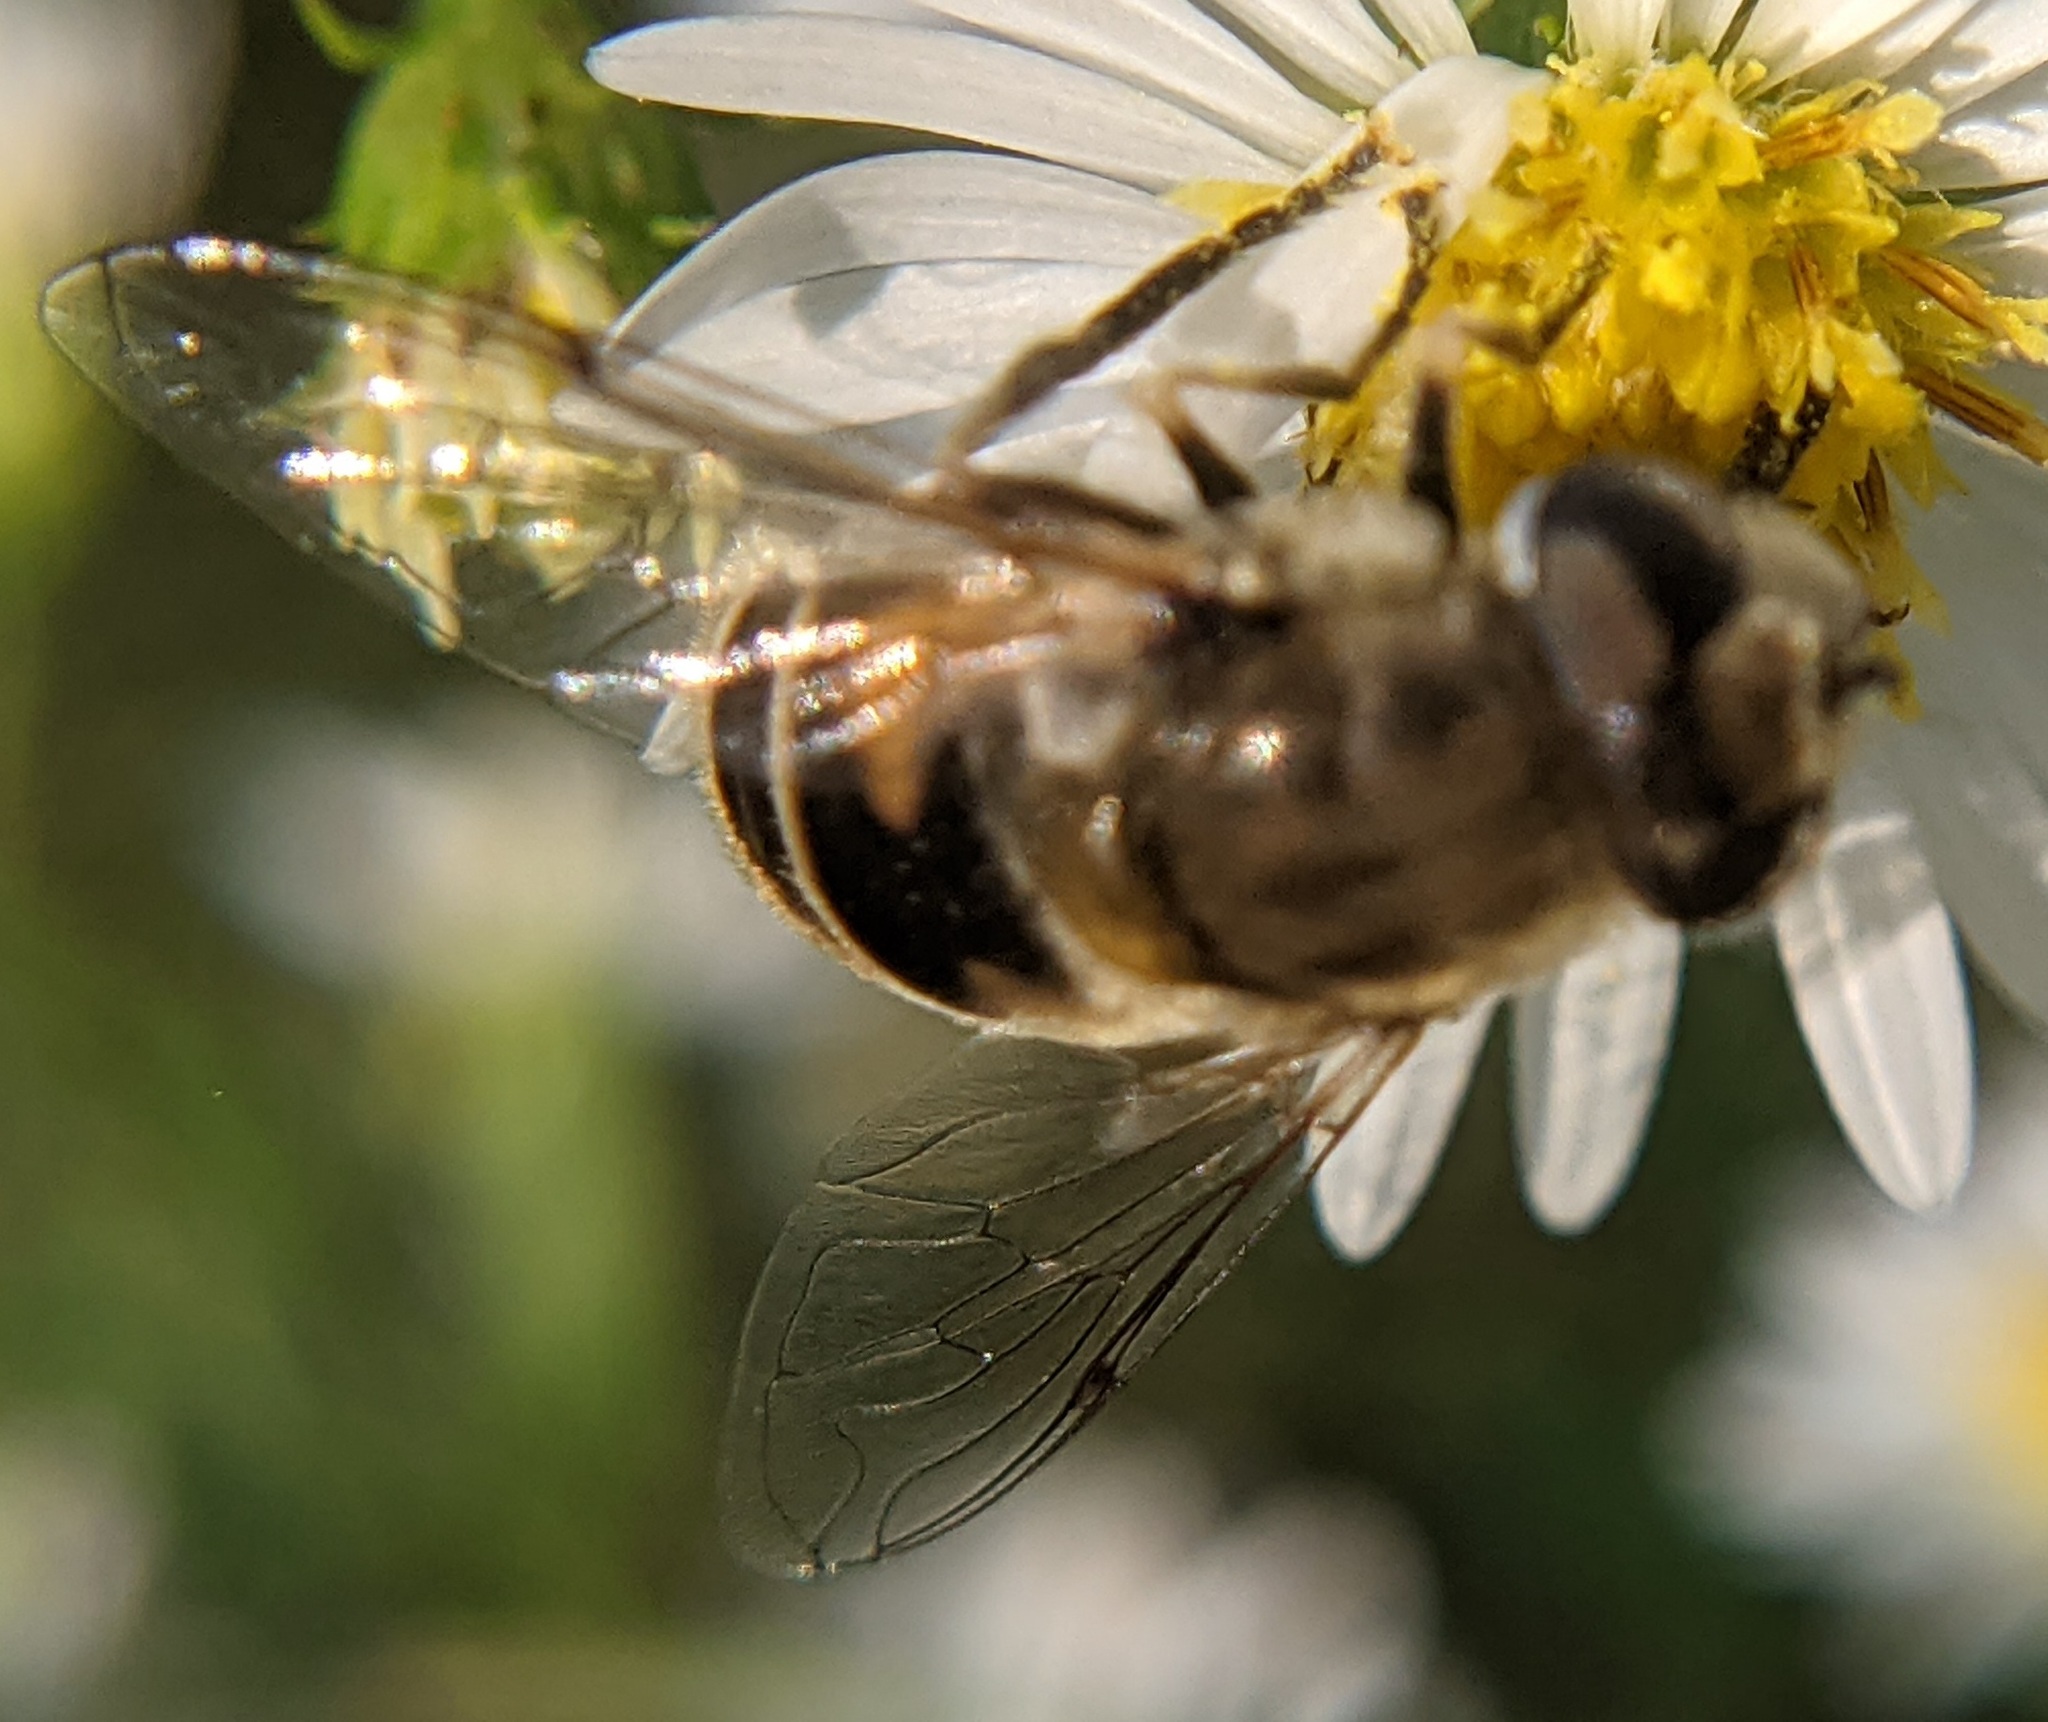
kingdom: Animalia
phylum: Arthropoda
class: Insecta
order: Diptera
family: Syrphidae
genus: Eristalis
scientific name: Eristalis arbustorum
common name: Hover fly
